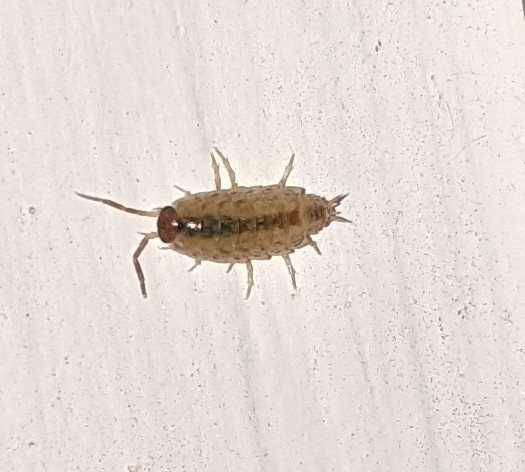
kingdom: Animalia
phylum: Arthropoda
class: Malacostraca
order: Isopoda
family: Philosciidae
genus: Philoscia
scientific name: Philoscia muscorum
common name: Common striped woodlouse
